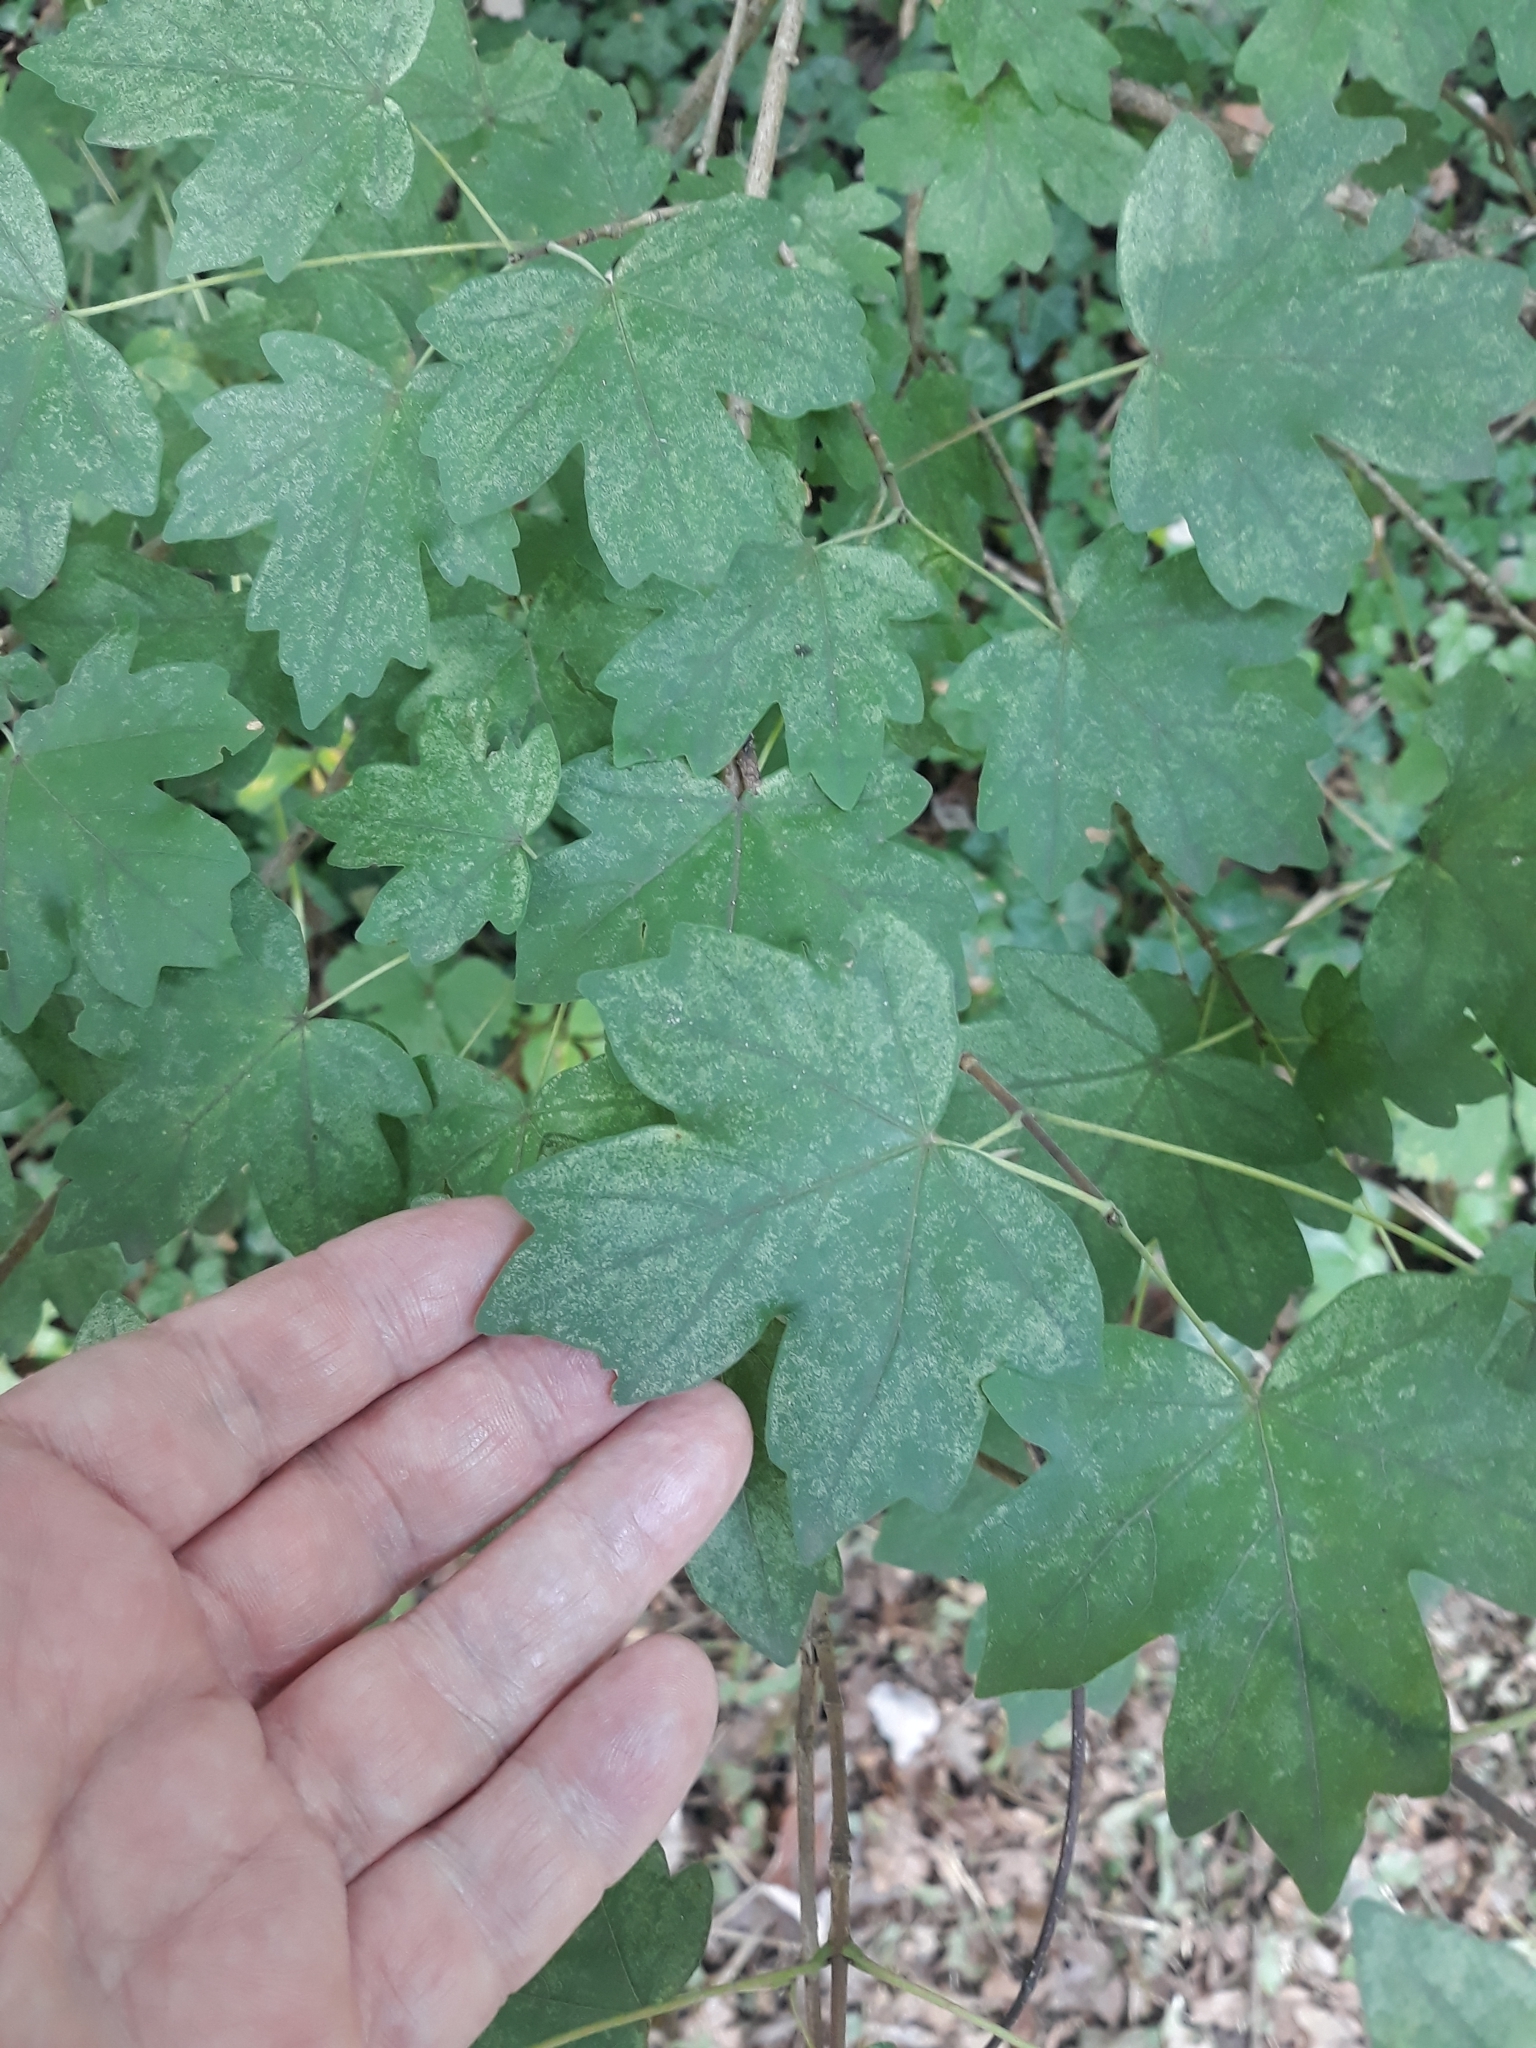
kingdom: Plantae
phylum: Tracheophyta
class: Magnoliopsida
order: Sapindales
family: Sapindaceae
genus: Acer
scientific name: Acer campestre
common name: Field maple
